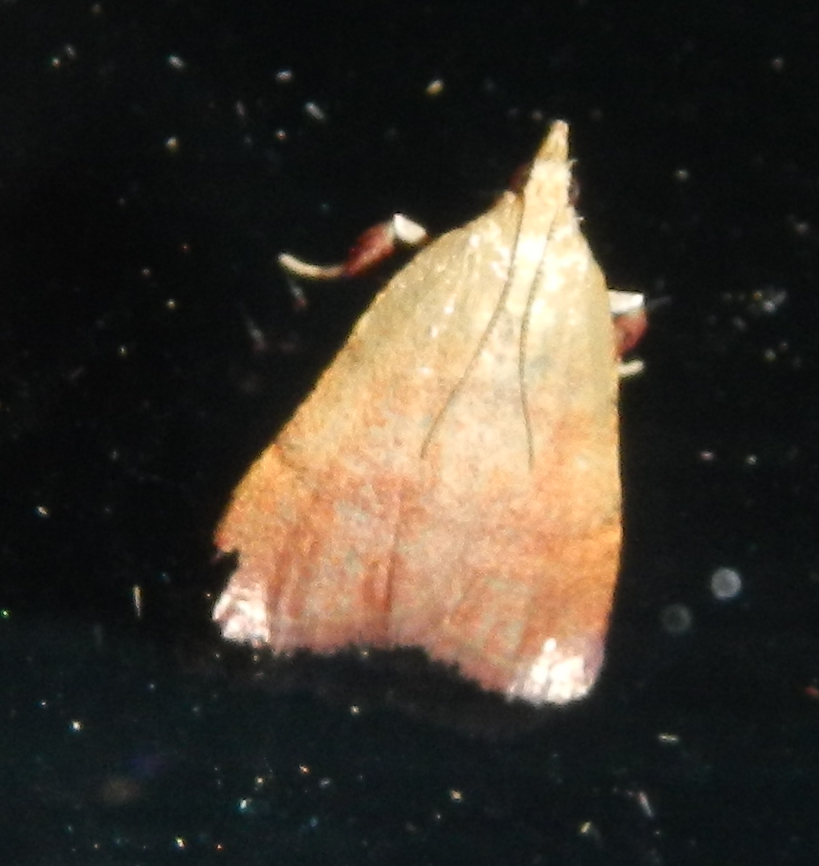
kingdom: Animalia
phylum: Arthropoda
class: Insecta
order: Lepidoptera
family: Pyralidae
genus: Condylolomia
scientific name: Condylolomia participialis
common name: Drab condylolomia moth
